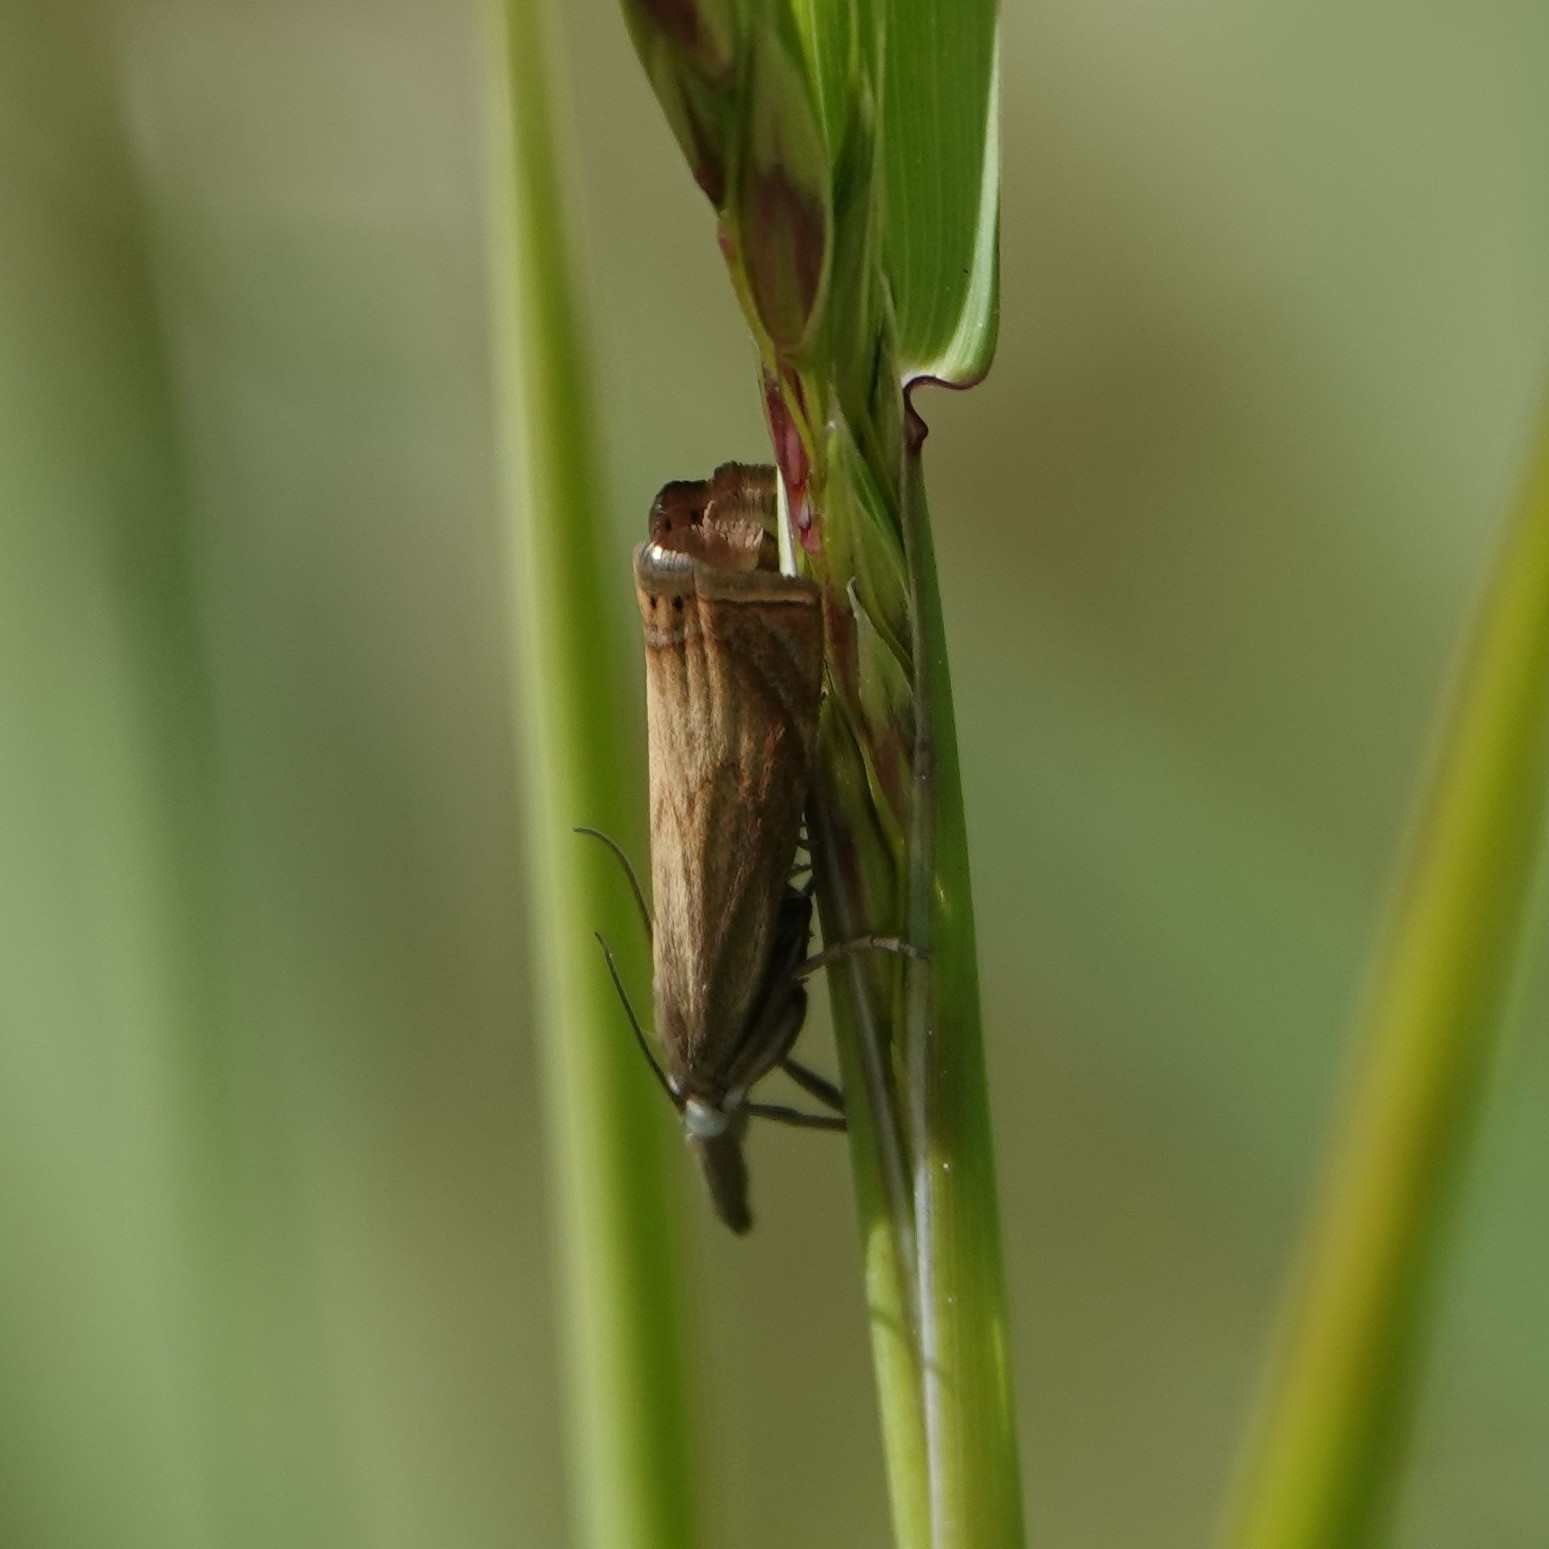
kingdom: Animalia
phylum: Arthropoda
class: Insecta
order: Lepidoptera
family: Crambidae
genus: Chrysoteuchia
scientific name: Chrysoteuchia culmella
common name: Garden grass-veneer
